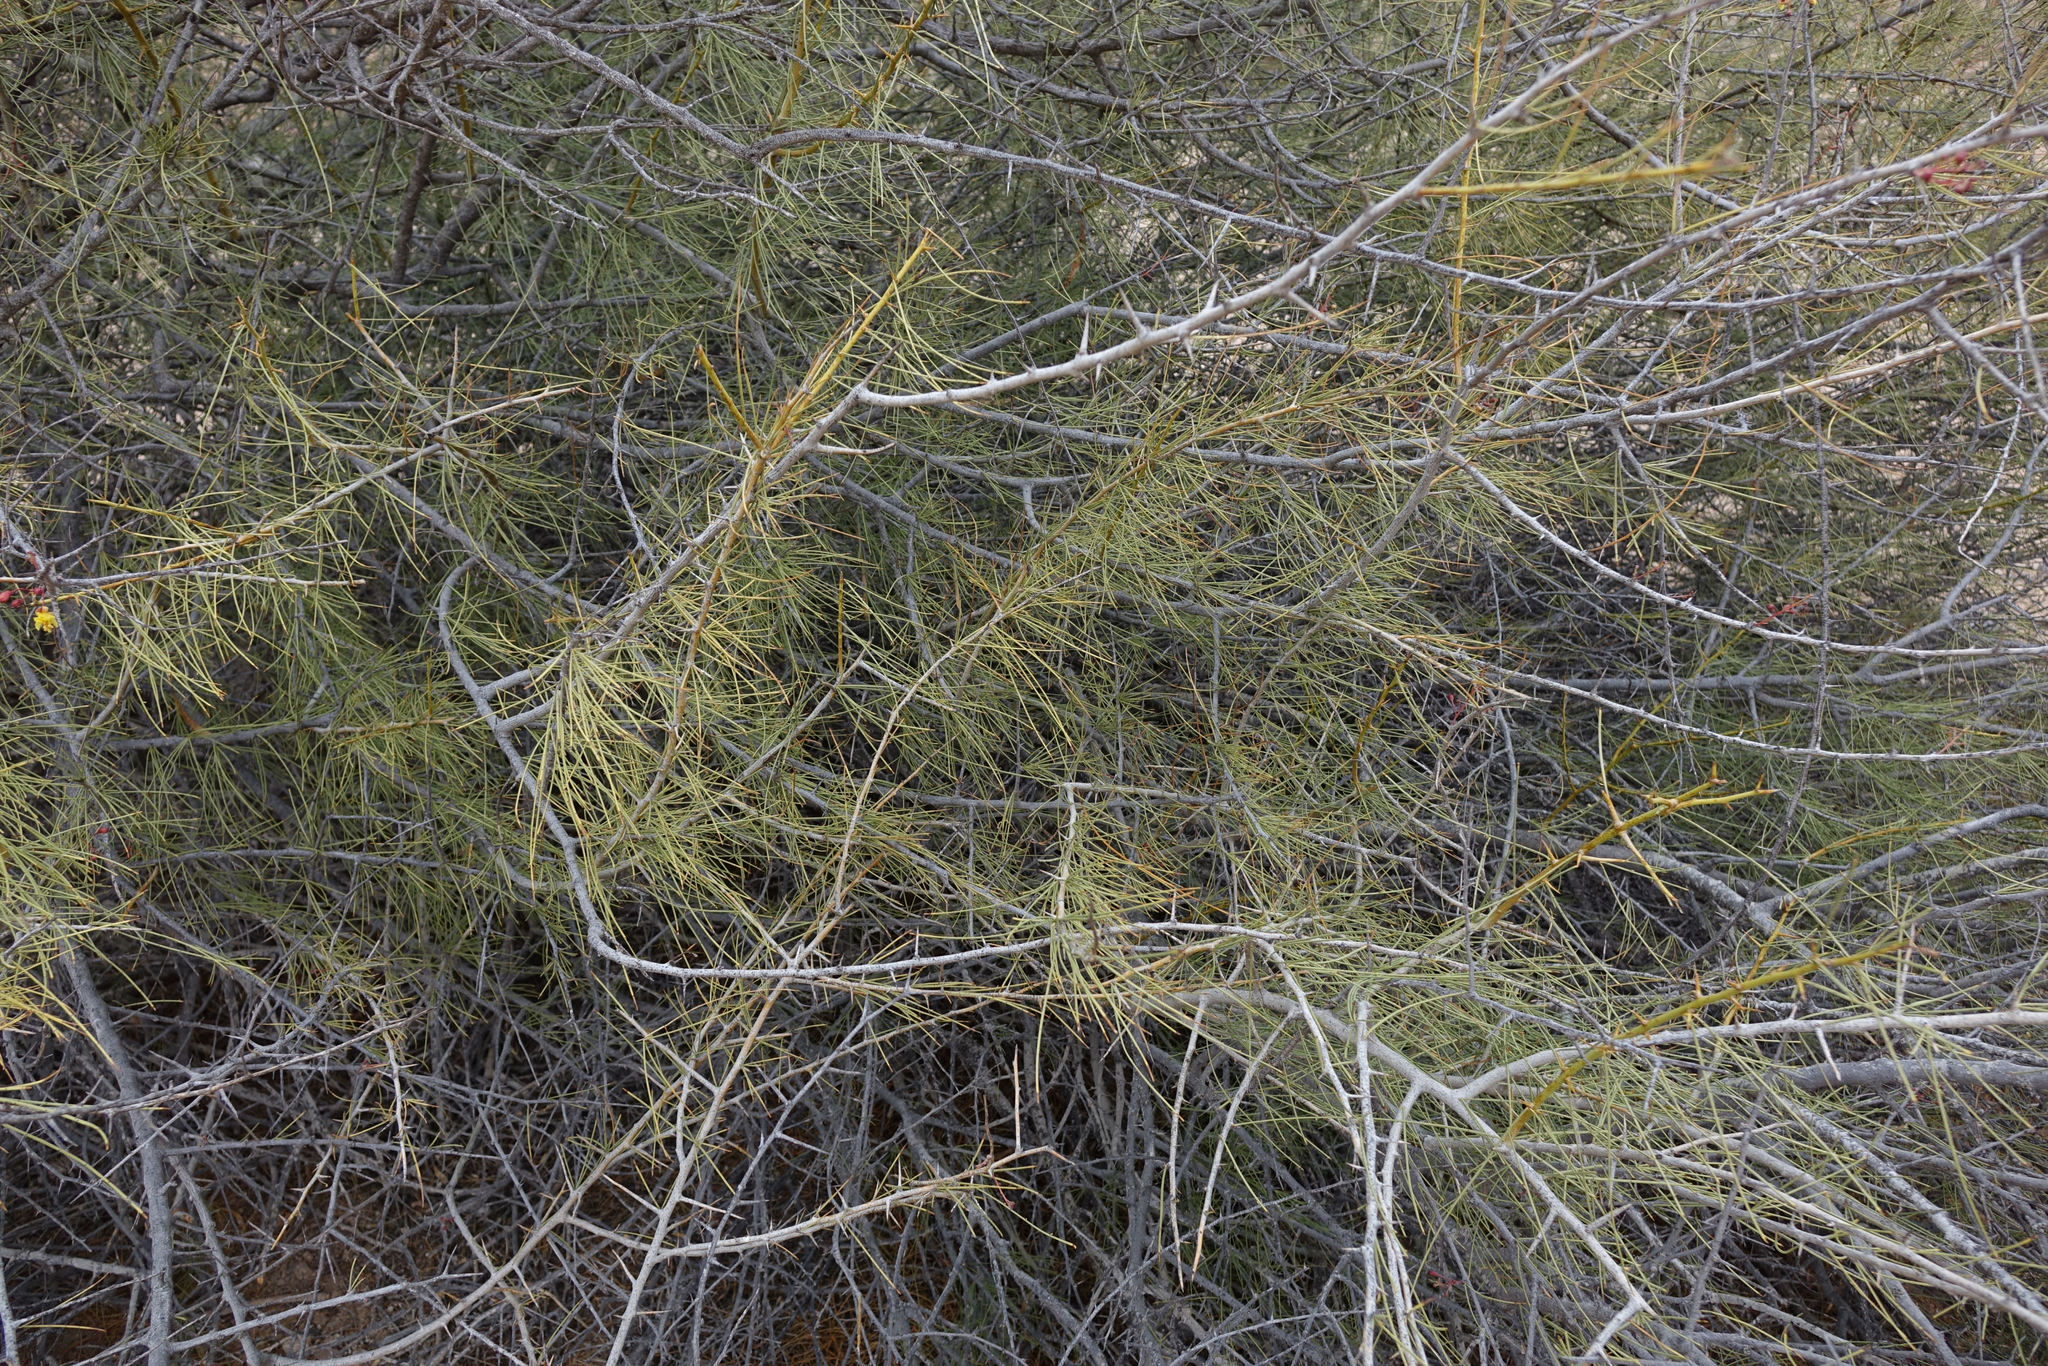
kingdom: Plantae
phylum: Tracheophyta
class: Magnoliopsida
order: Fabales
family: Fabaceae
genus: Parkinsonia
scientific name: Parkinsonia africana
